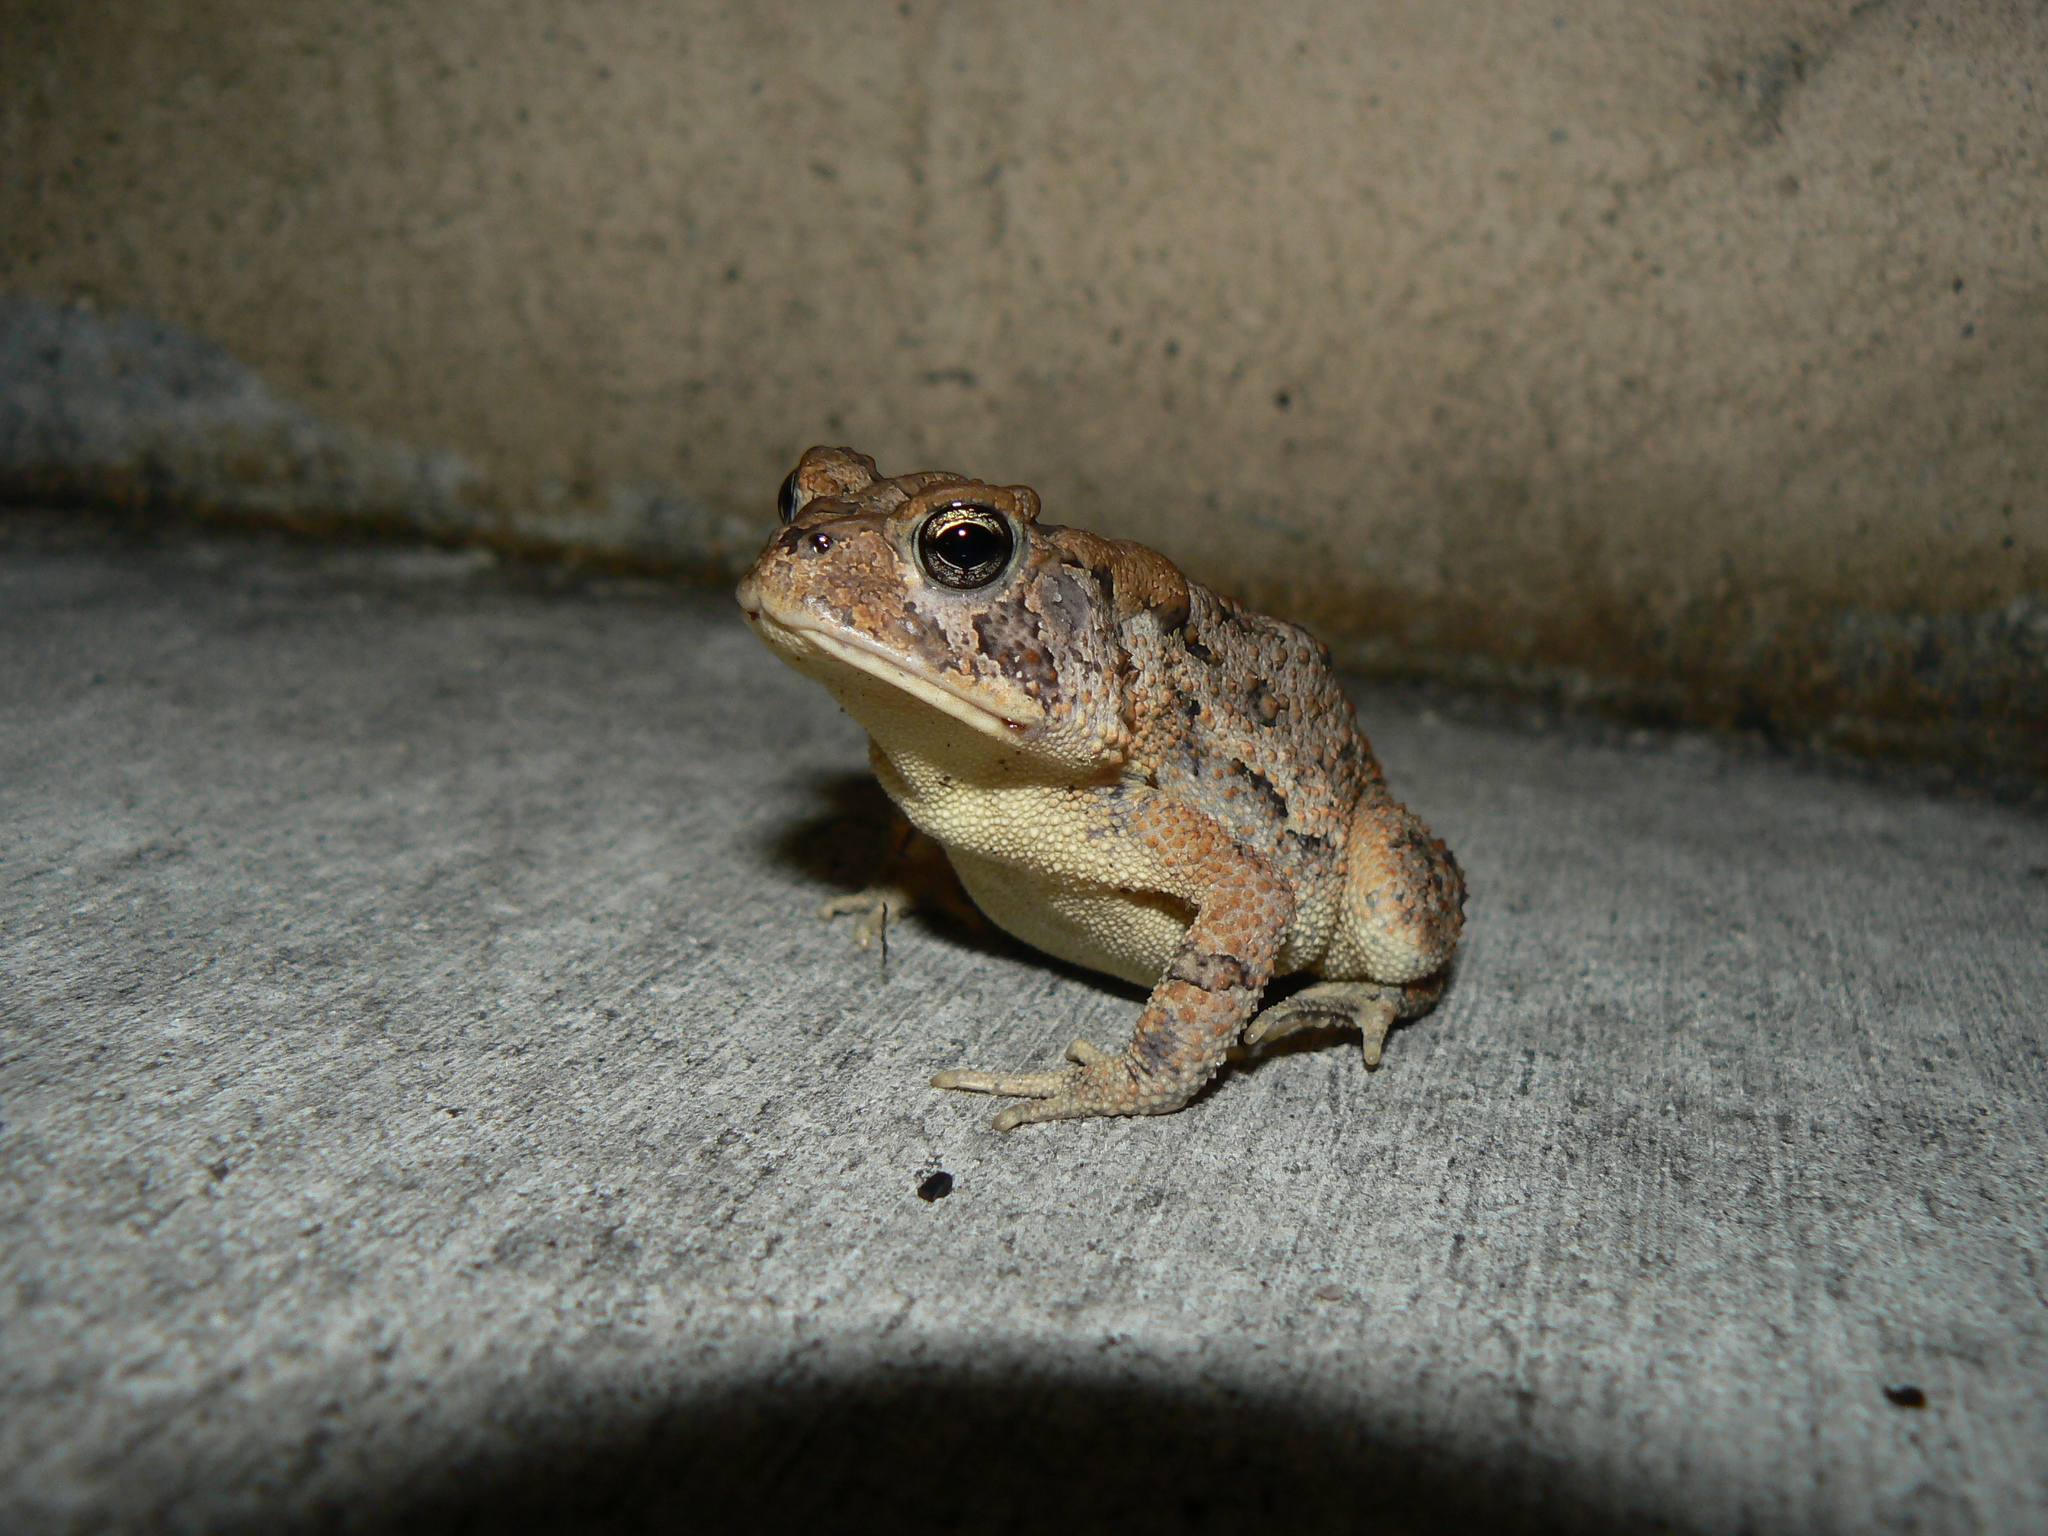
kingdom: Animalia
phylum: Chordata
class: Amphibia
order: Anura
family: Bufonidae
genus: Anaxyrus
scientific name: Anaxyrus terrestris
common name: Southern toad
